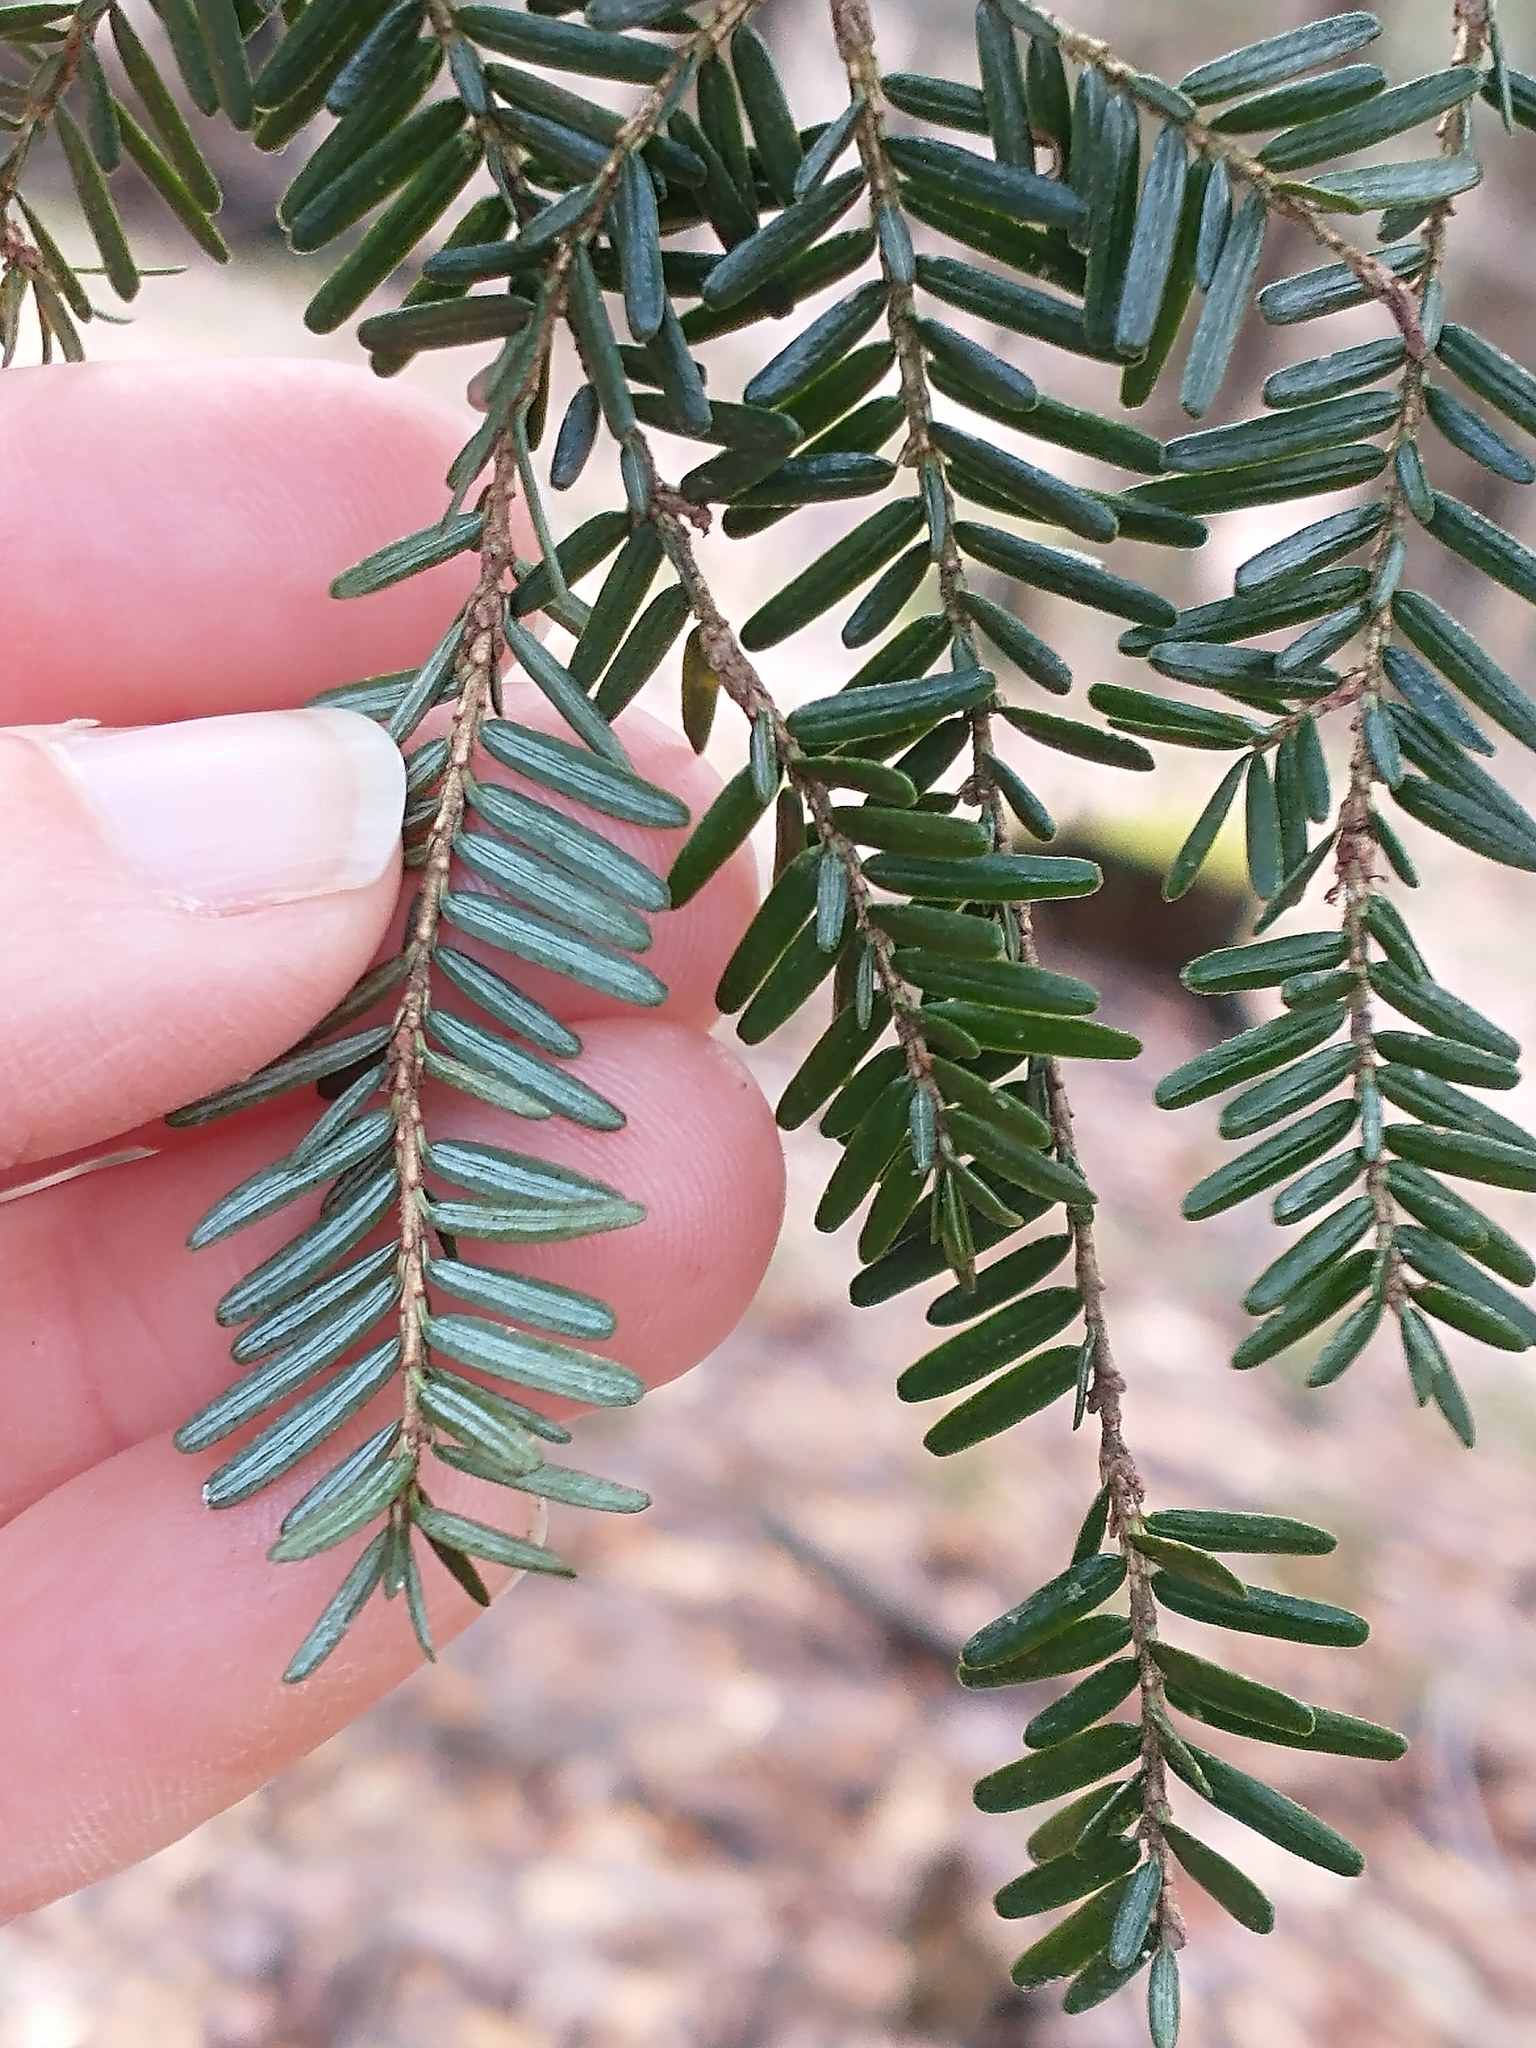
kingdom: Plantae
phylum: Tracheophyta
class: Pinopsida
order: Pinales
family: Pinaceae
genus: Tsuga
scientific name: Tsuga canadensis
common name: Eastern hemlock
